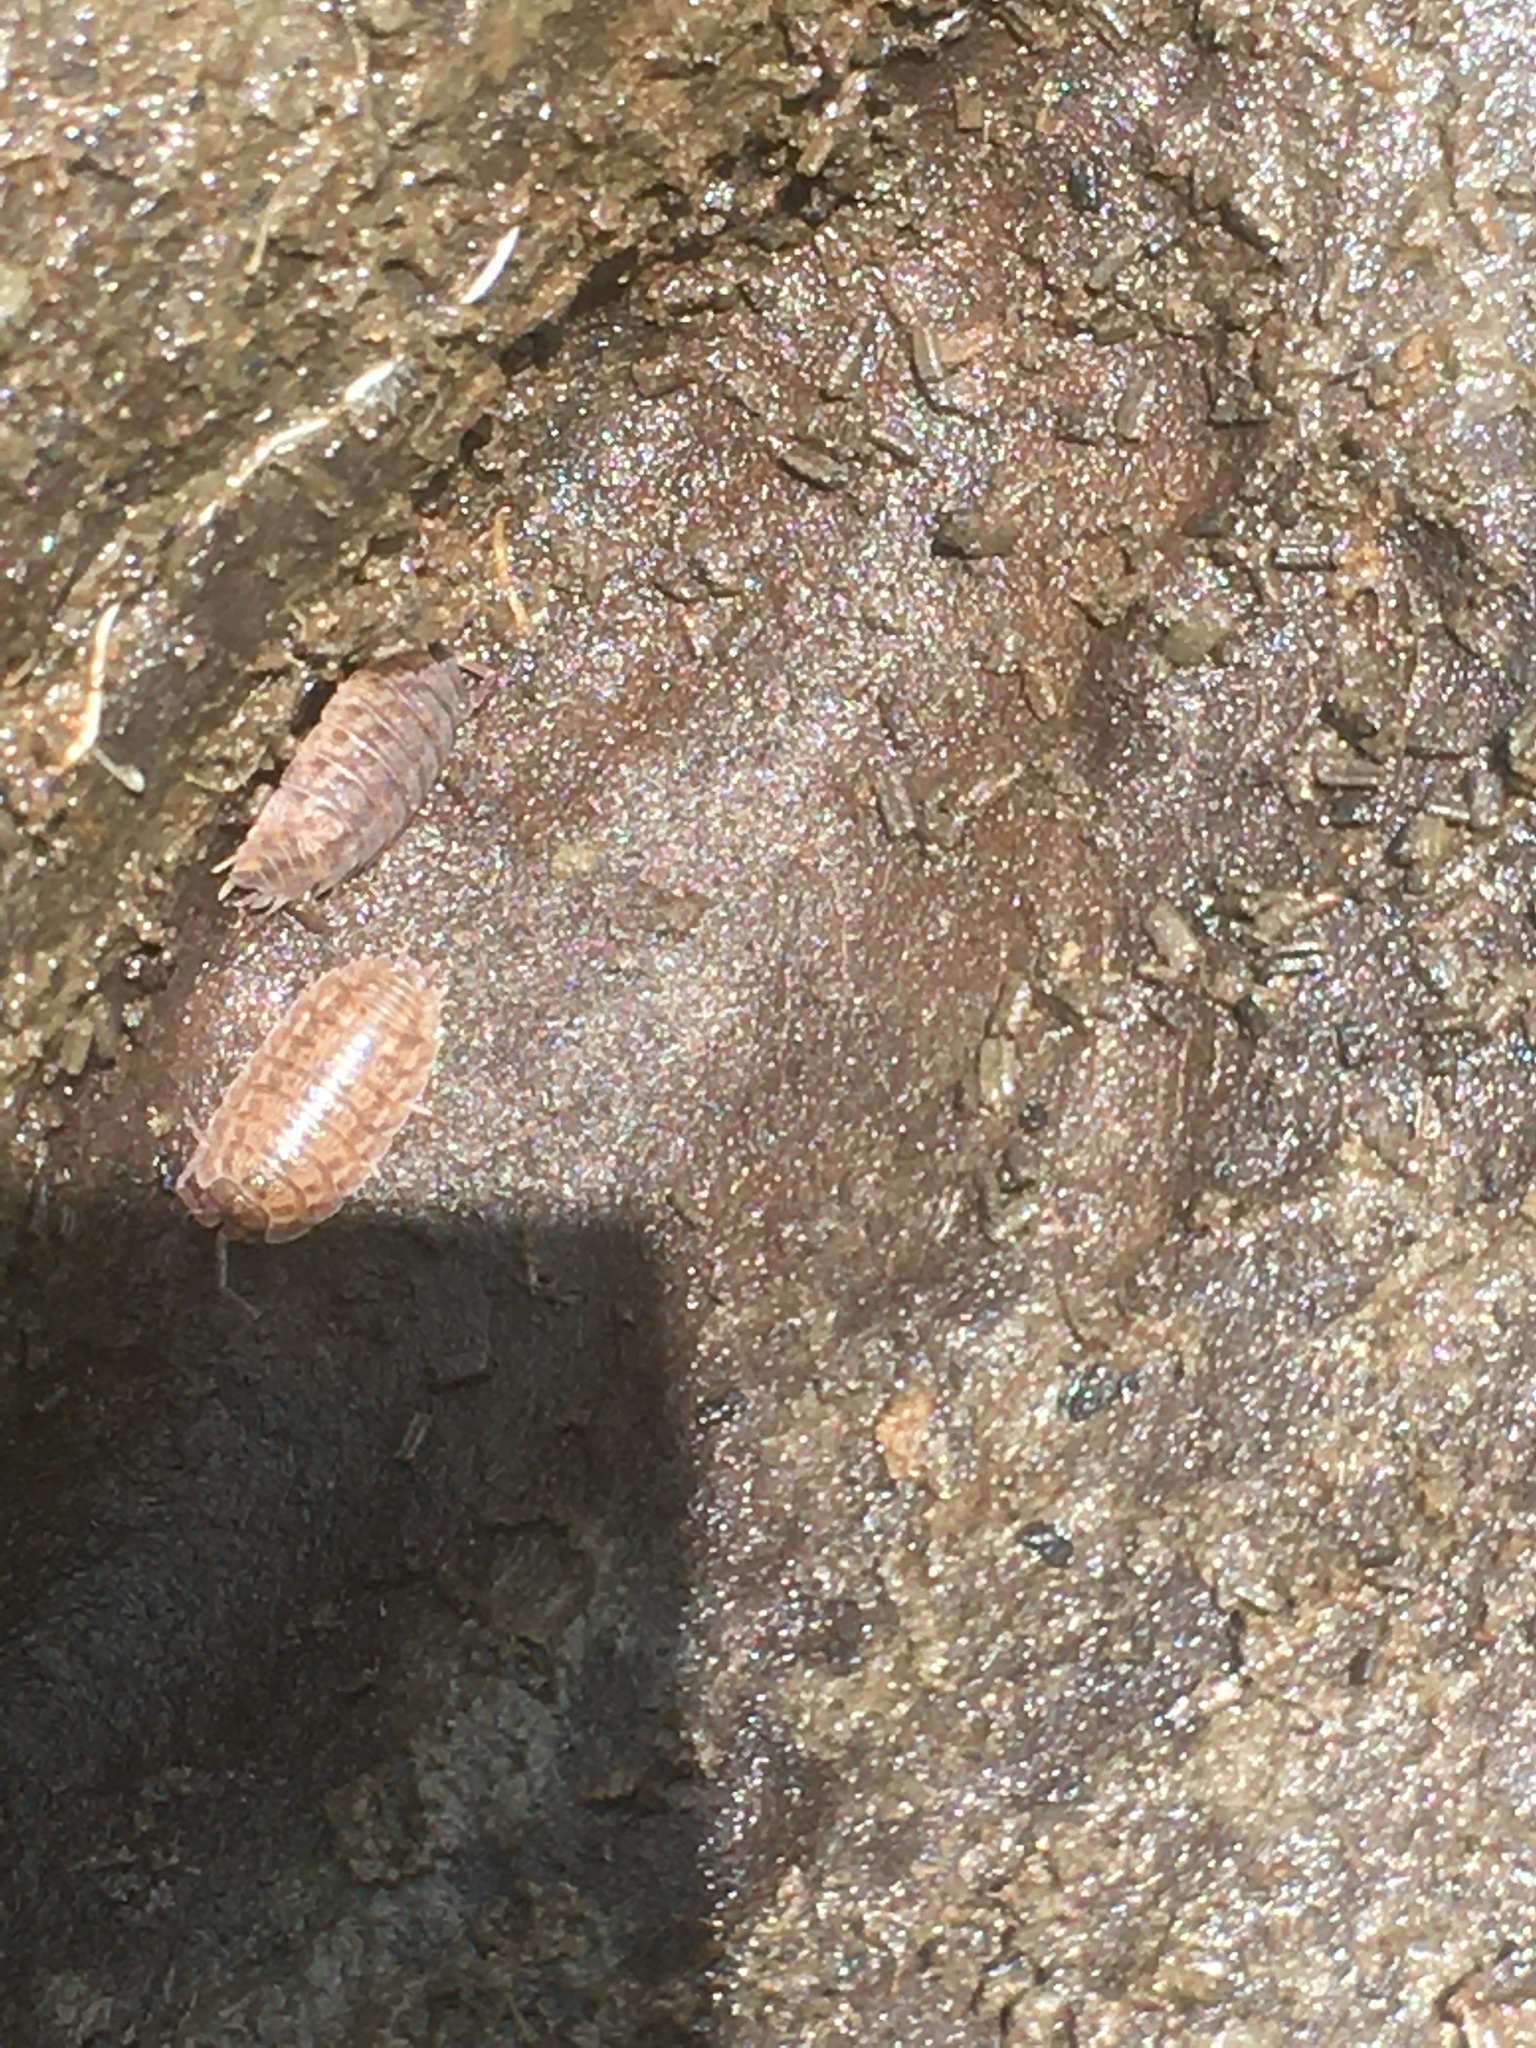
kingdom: Animalia
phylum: Arthropoda
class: Malacostraca
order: Isopoda
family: Trachelipodidae
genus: Trachelipus
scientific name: Trachelipus rathkii
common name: Isopod
